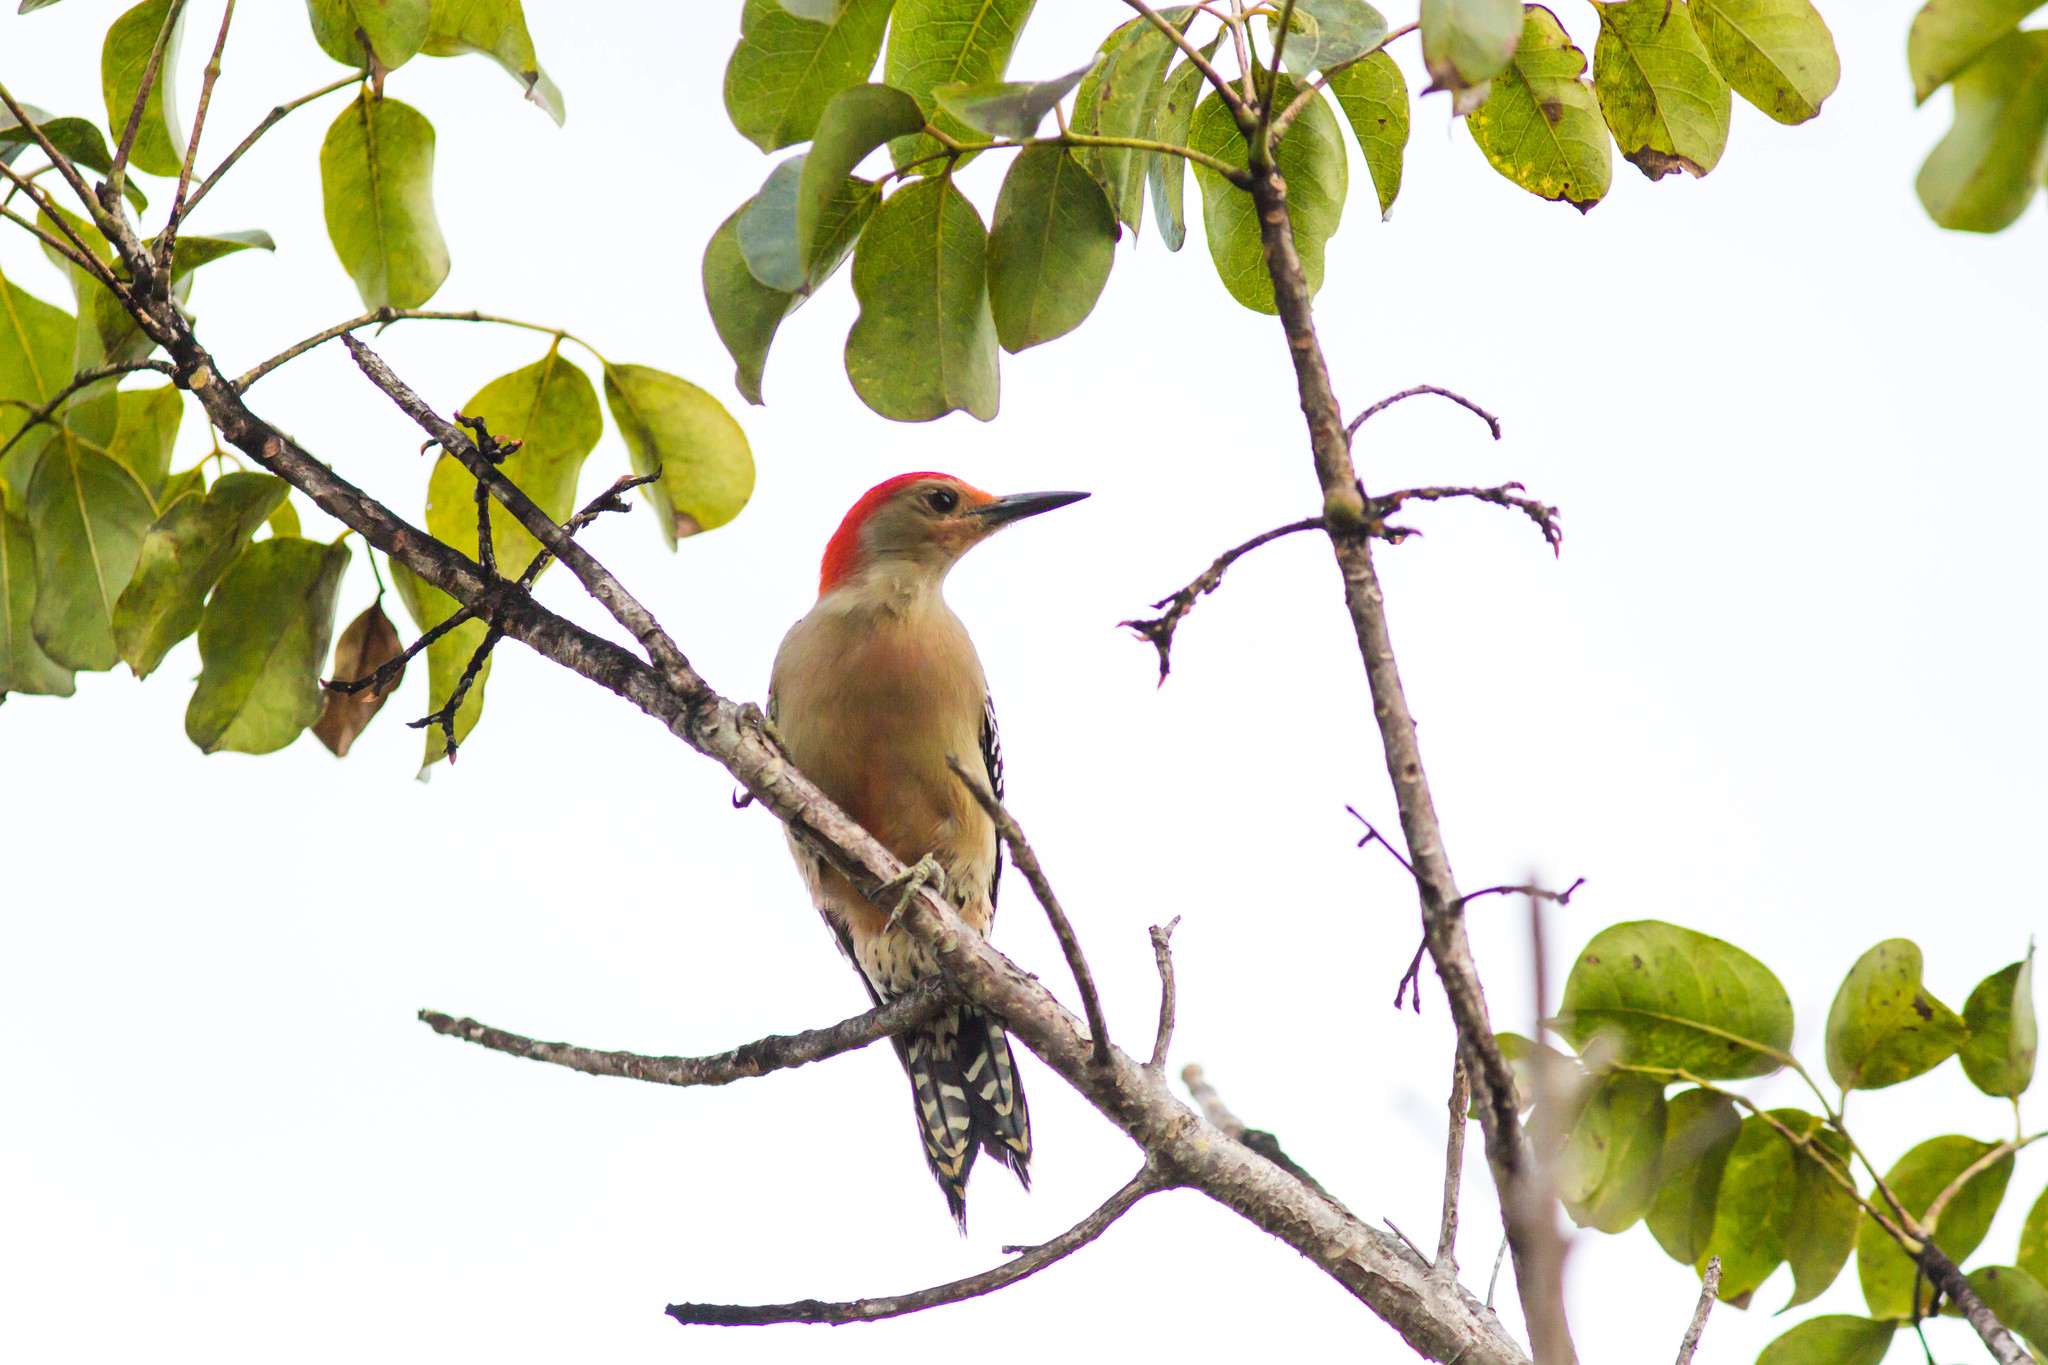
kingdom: Animalia
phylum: Chordata
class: Aves
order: Piciformes
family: Picidae
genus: Melanerpes
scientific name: Melanerpes carolinus
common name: Red-bellied woodpecker
